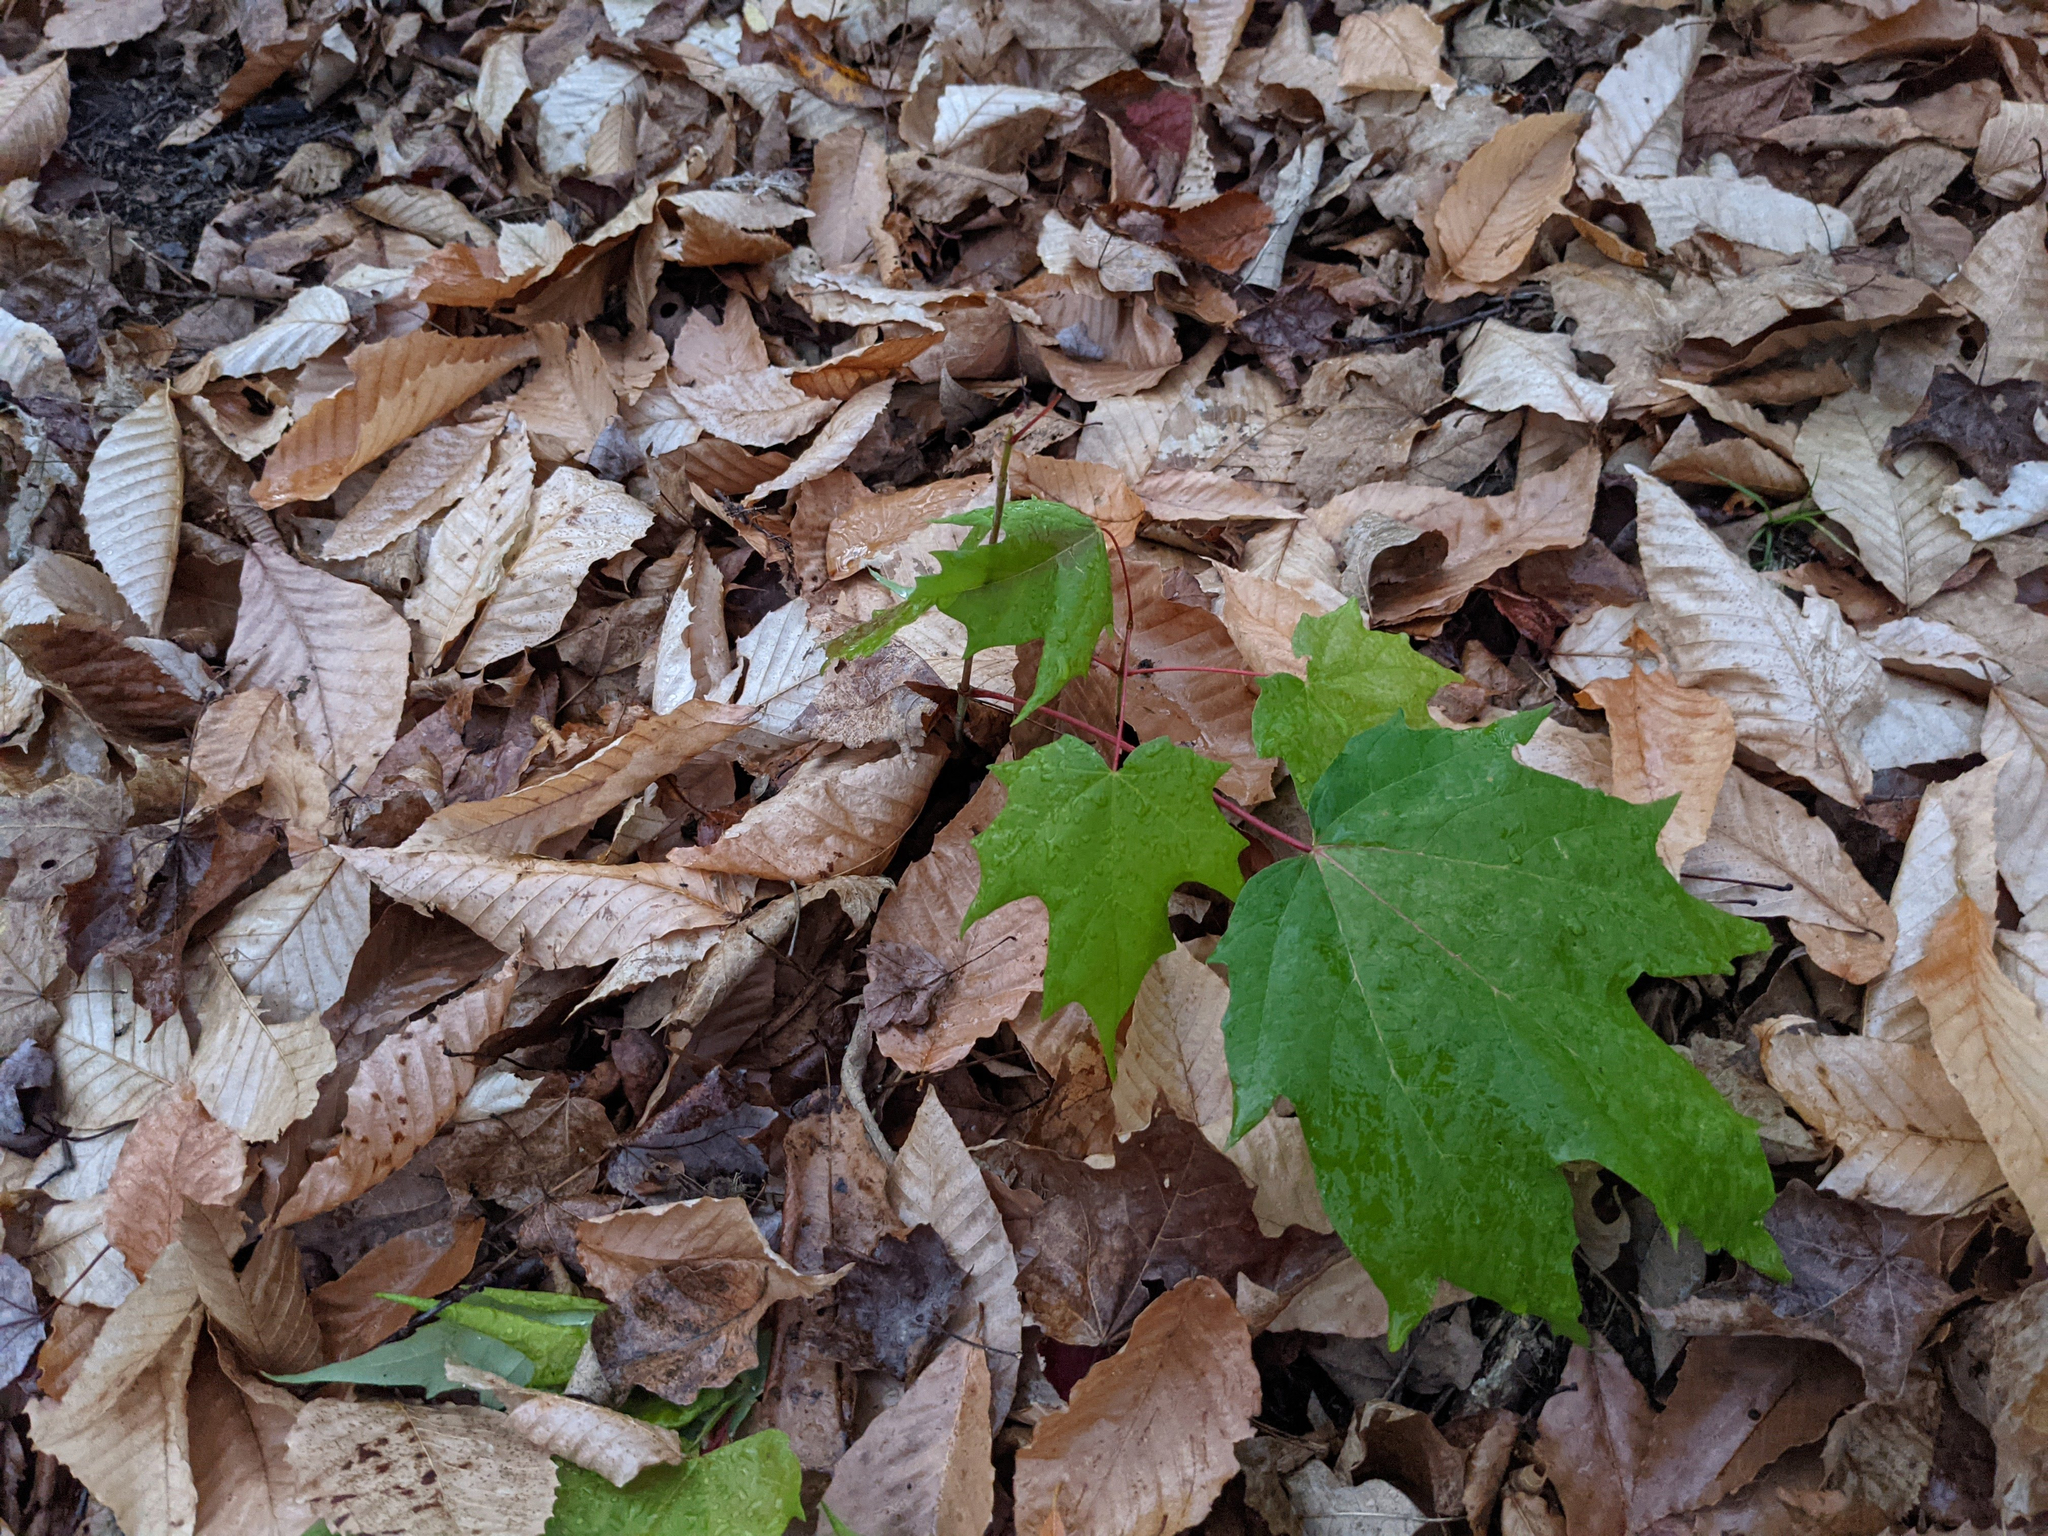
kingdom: Plantae
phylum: Tracheophyta
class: Magnoliopsida
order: Sapindales
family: Sapindaceae
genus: Acer
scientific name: Acer saccharum
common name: Sugar maple
